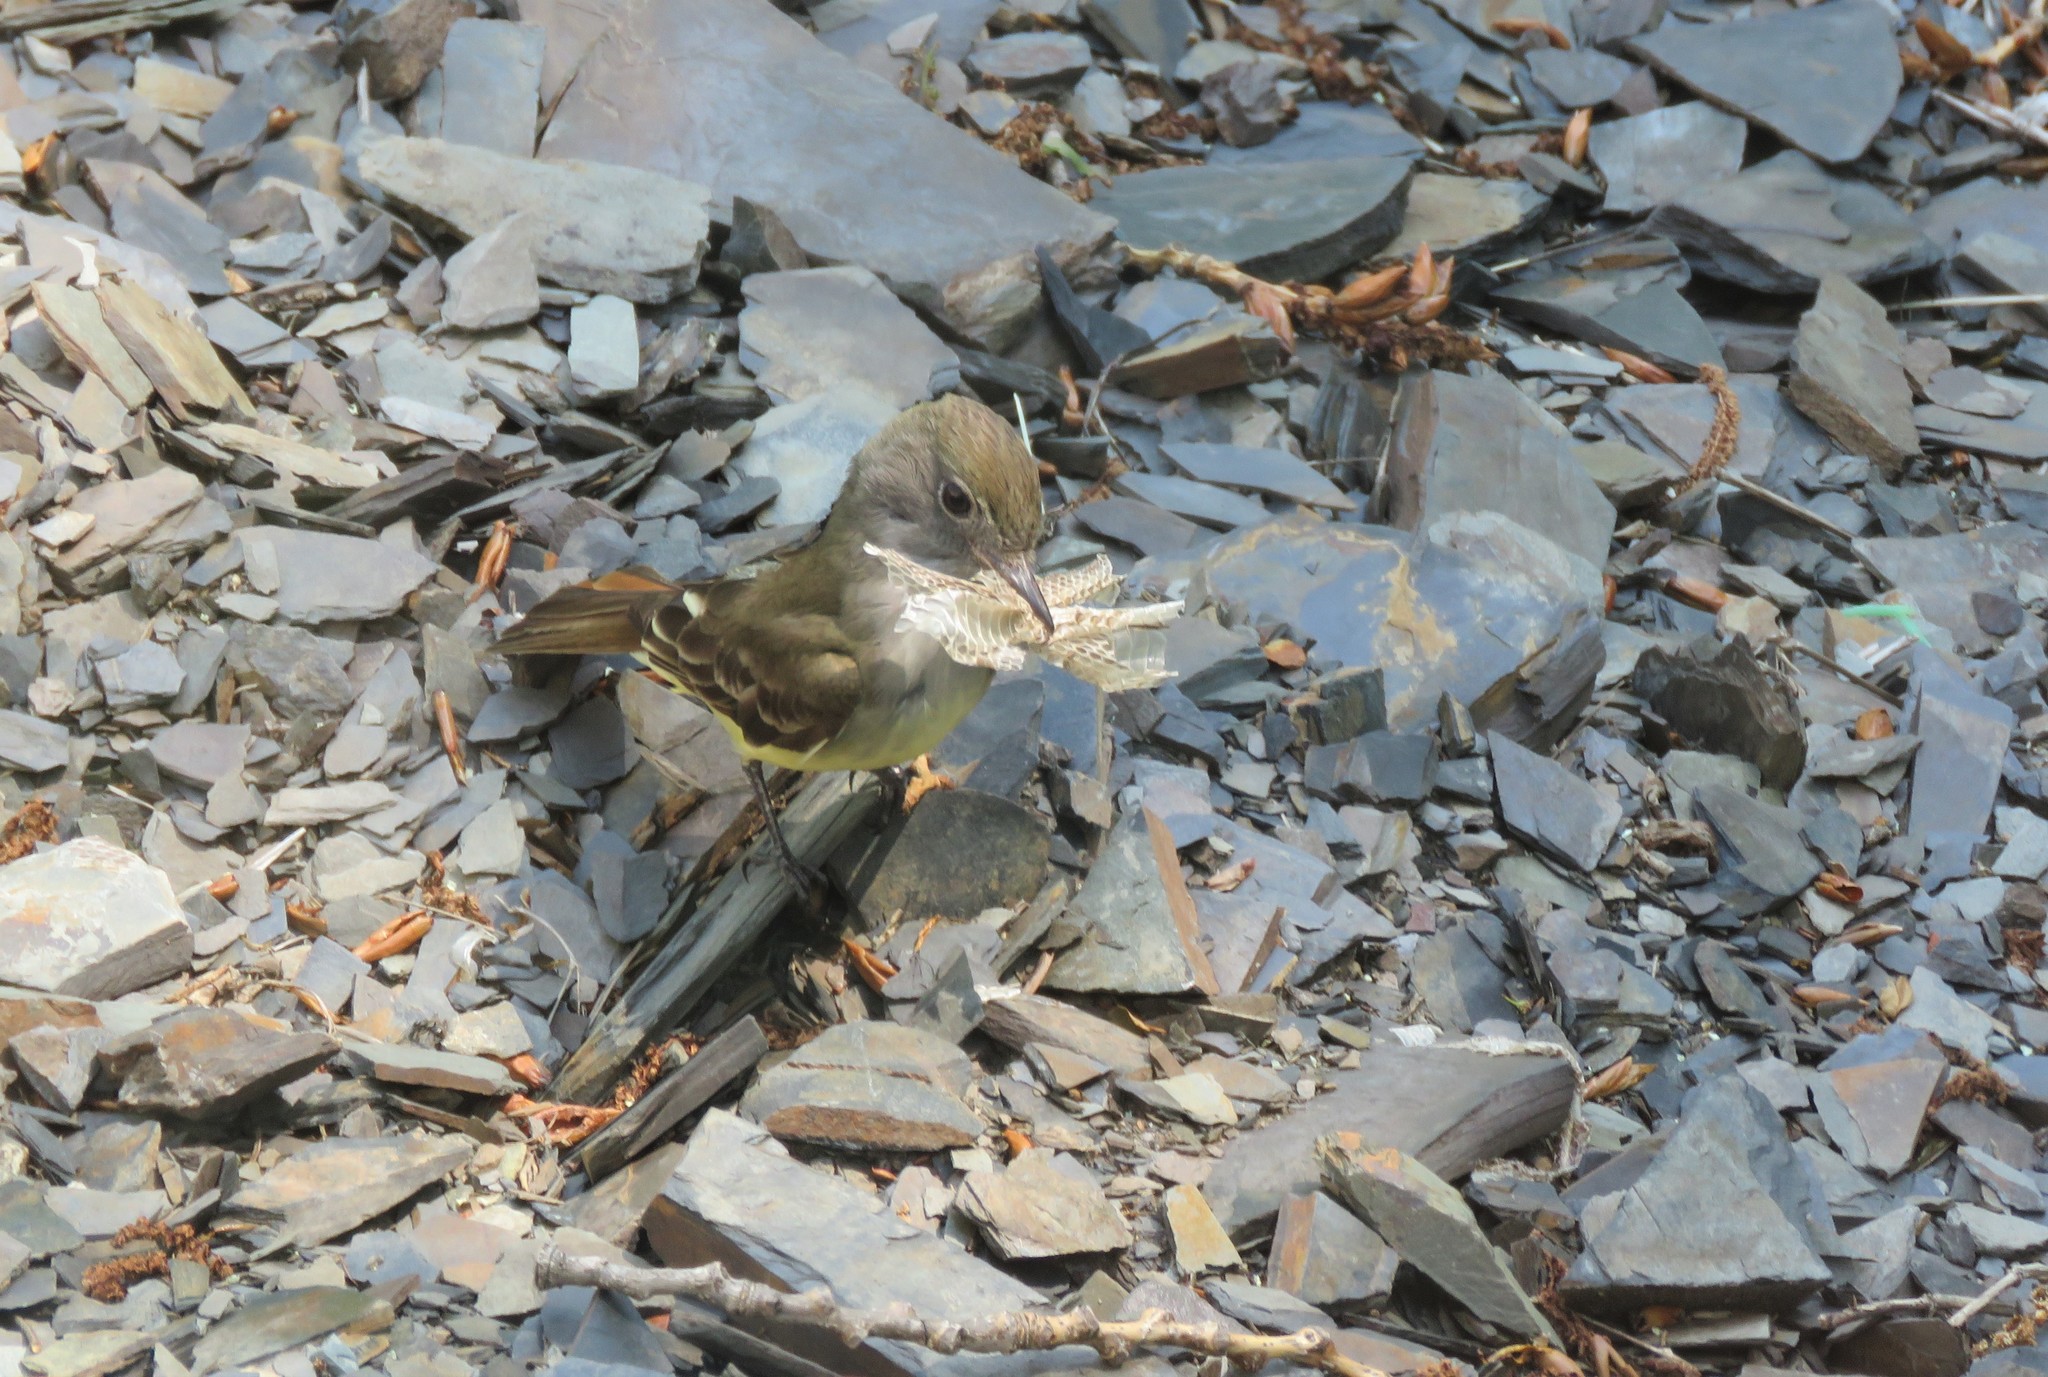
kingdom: Animalia
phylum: Chordata
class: Aves
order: Passeriformes
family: Tyrannidae
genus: Myiarchus
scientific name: Myiarchus crinitus
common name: Great crested flycatcher
